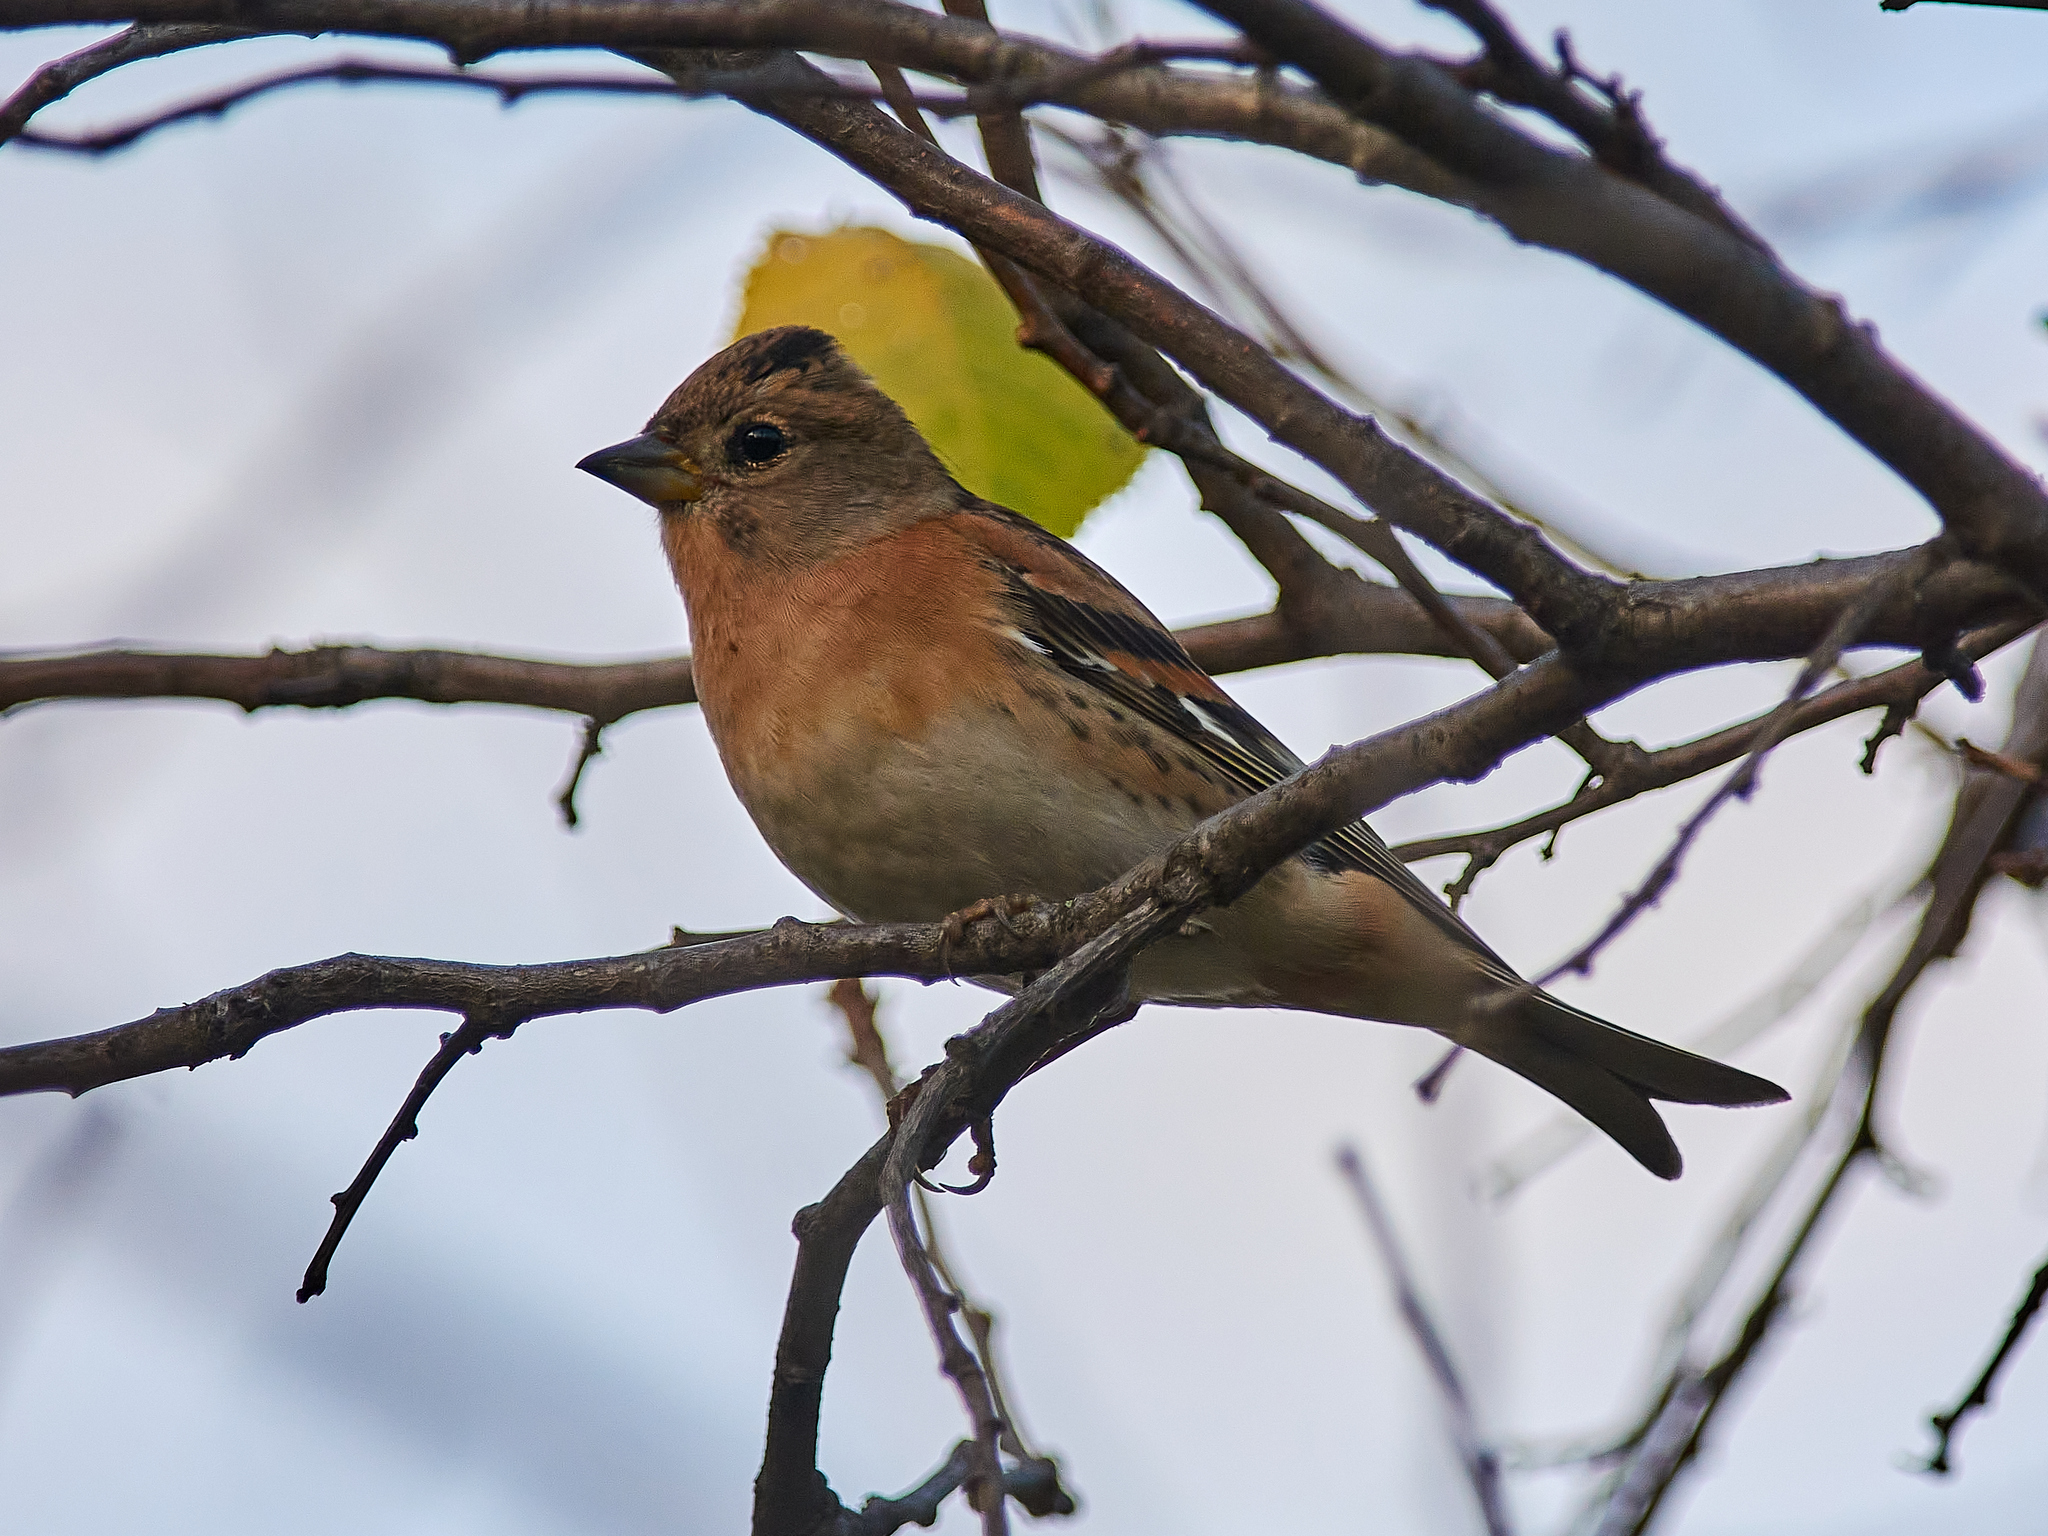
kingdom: Animalia
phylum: Chordata
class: Aves
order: Passeriformes
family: Fringillidae
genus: Fringilla
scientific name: Fringilla montifringilla
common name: Brambling
